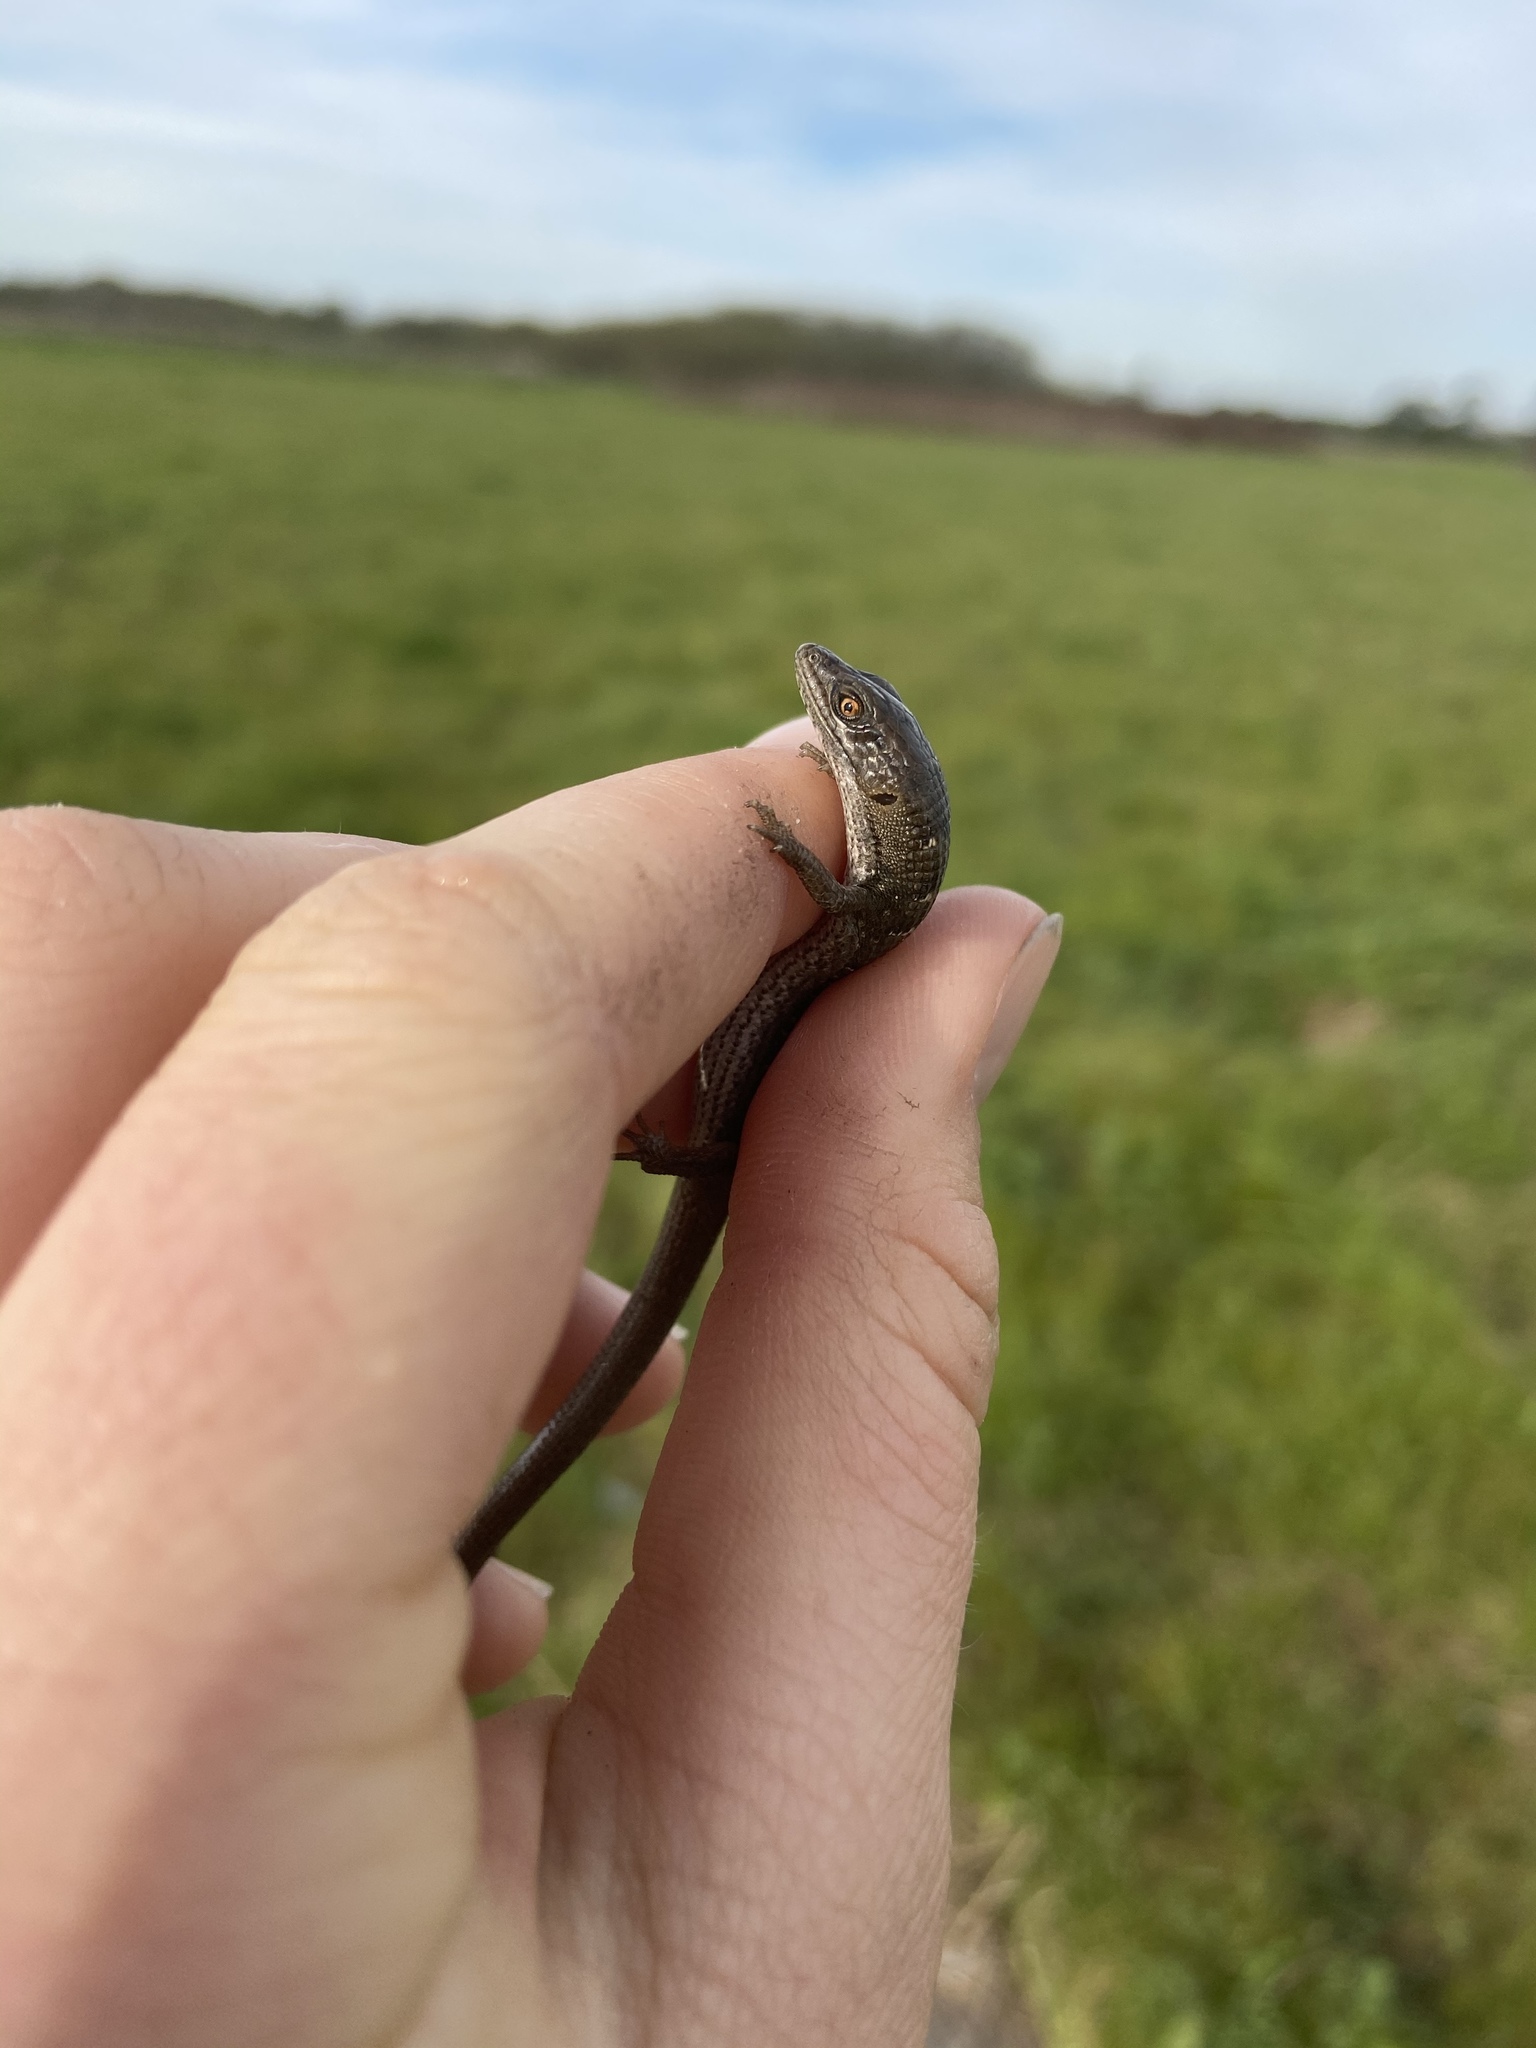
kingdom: Animalia
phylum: Chordata
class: Squamata
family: Anguidae
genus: Elgaria
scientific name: Elgaria multicarinata
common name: Southern alligator lizard
